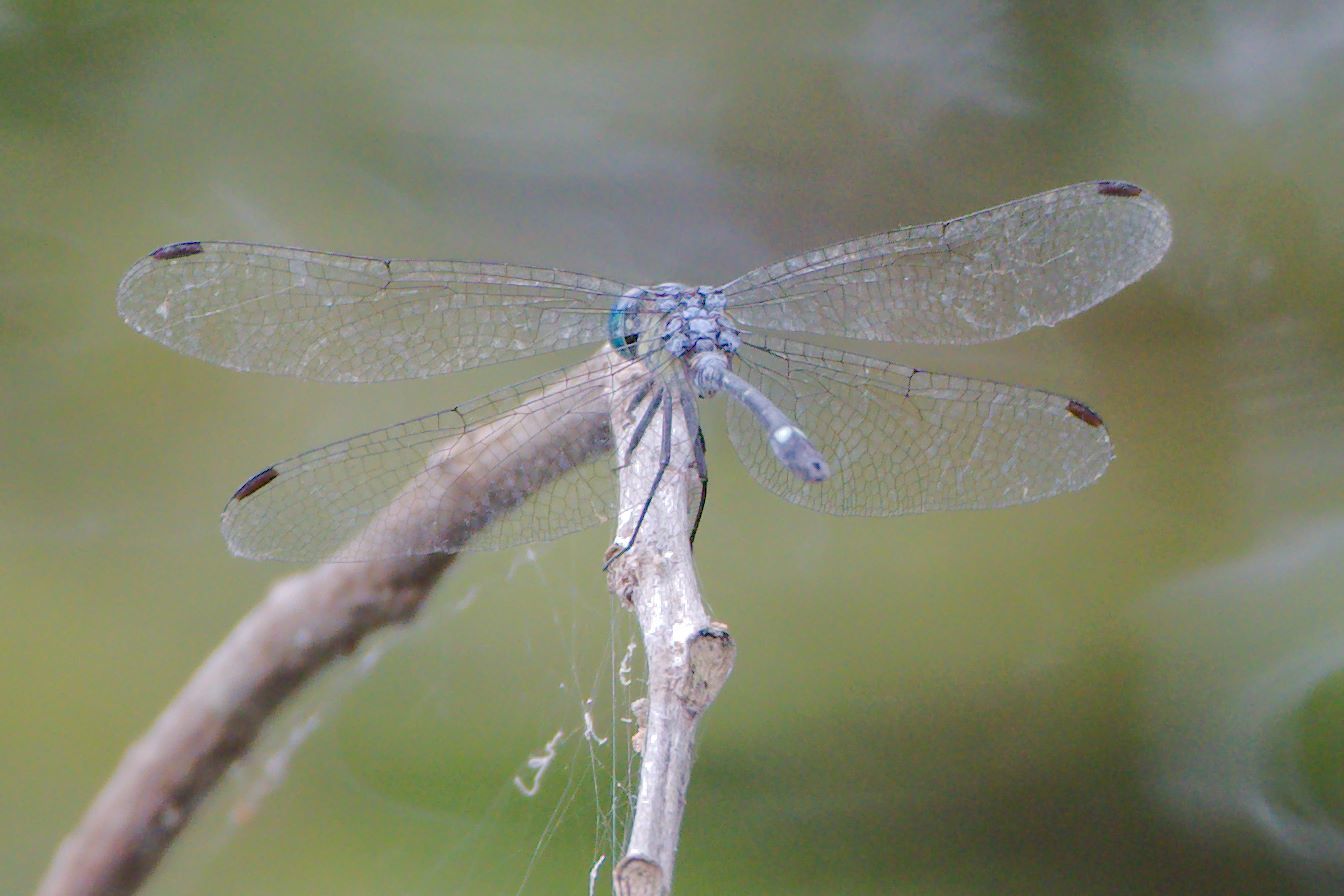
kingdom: Animalia
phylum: Arthropoda
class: Insecta
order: Odonata
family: Libellulidae
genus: Micrathyria
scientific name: Micrathyria didyma
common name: Three-striped dasher
